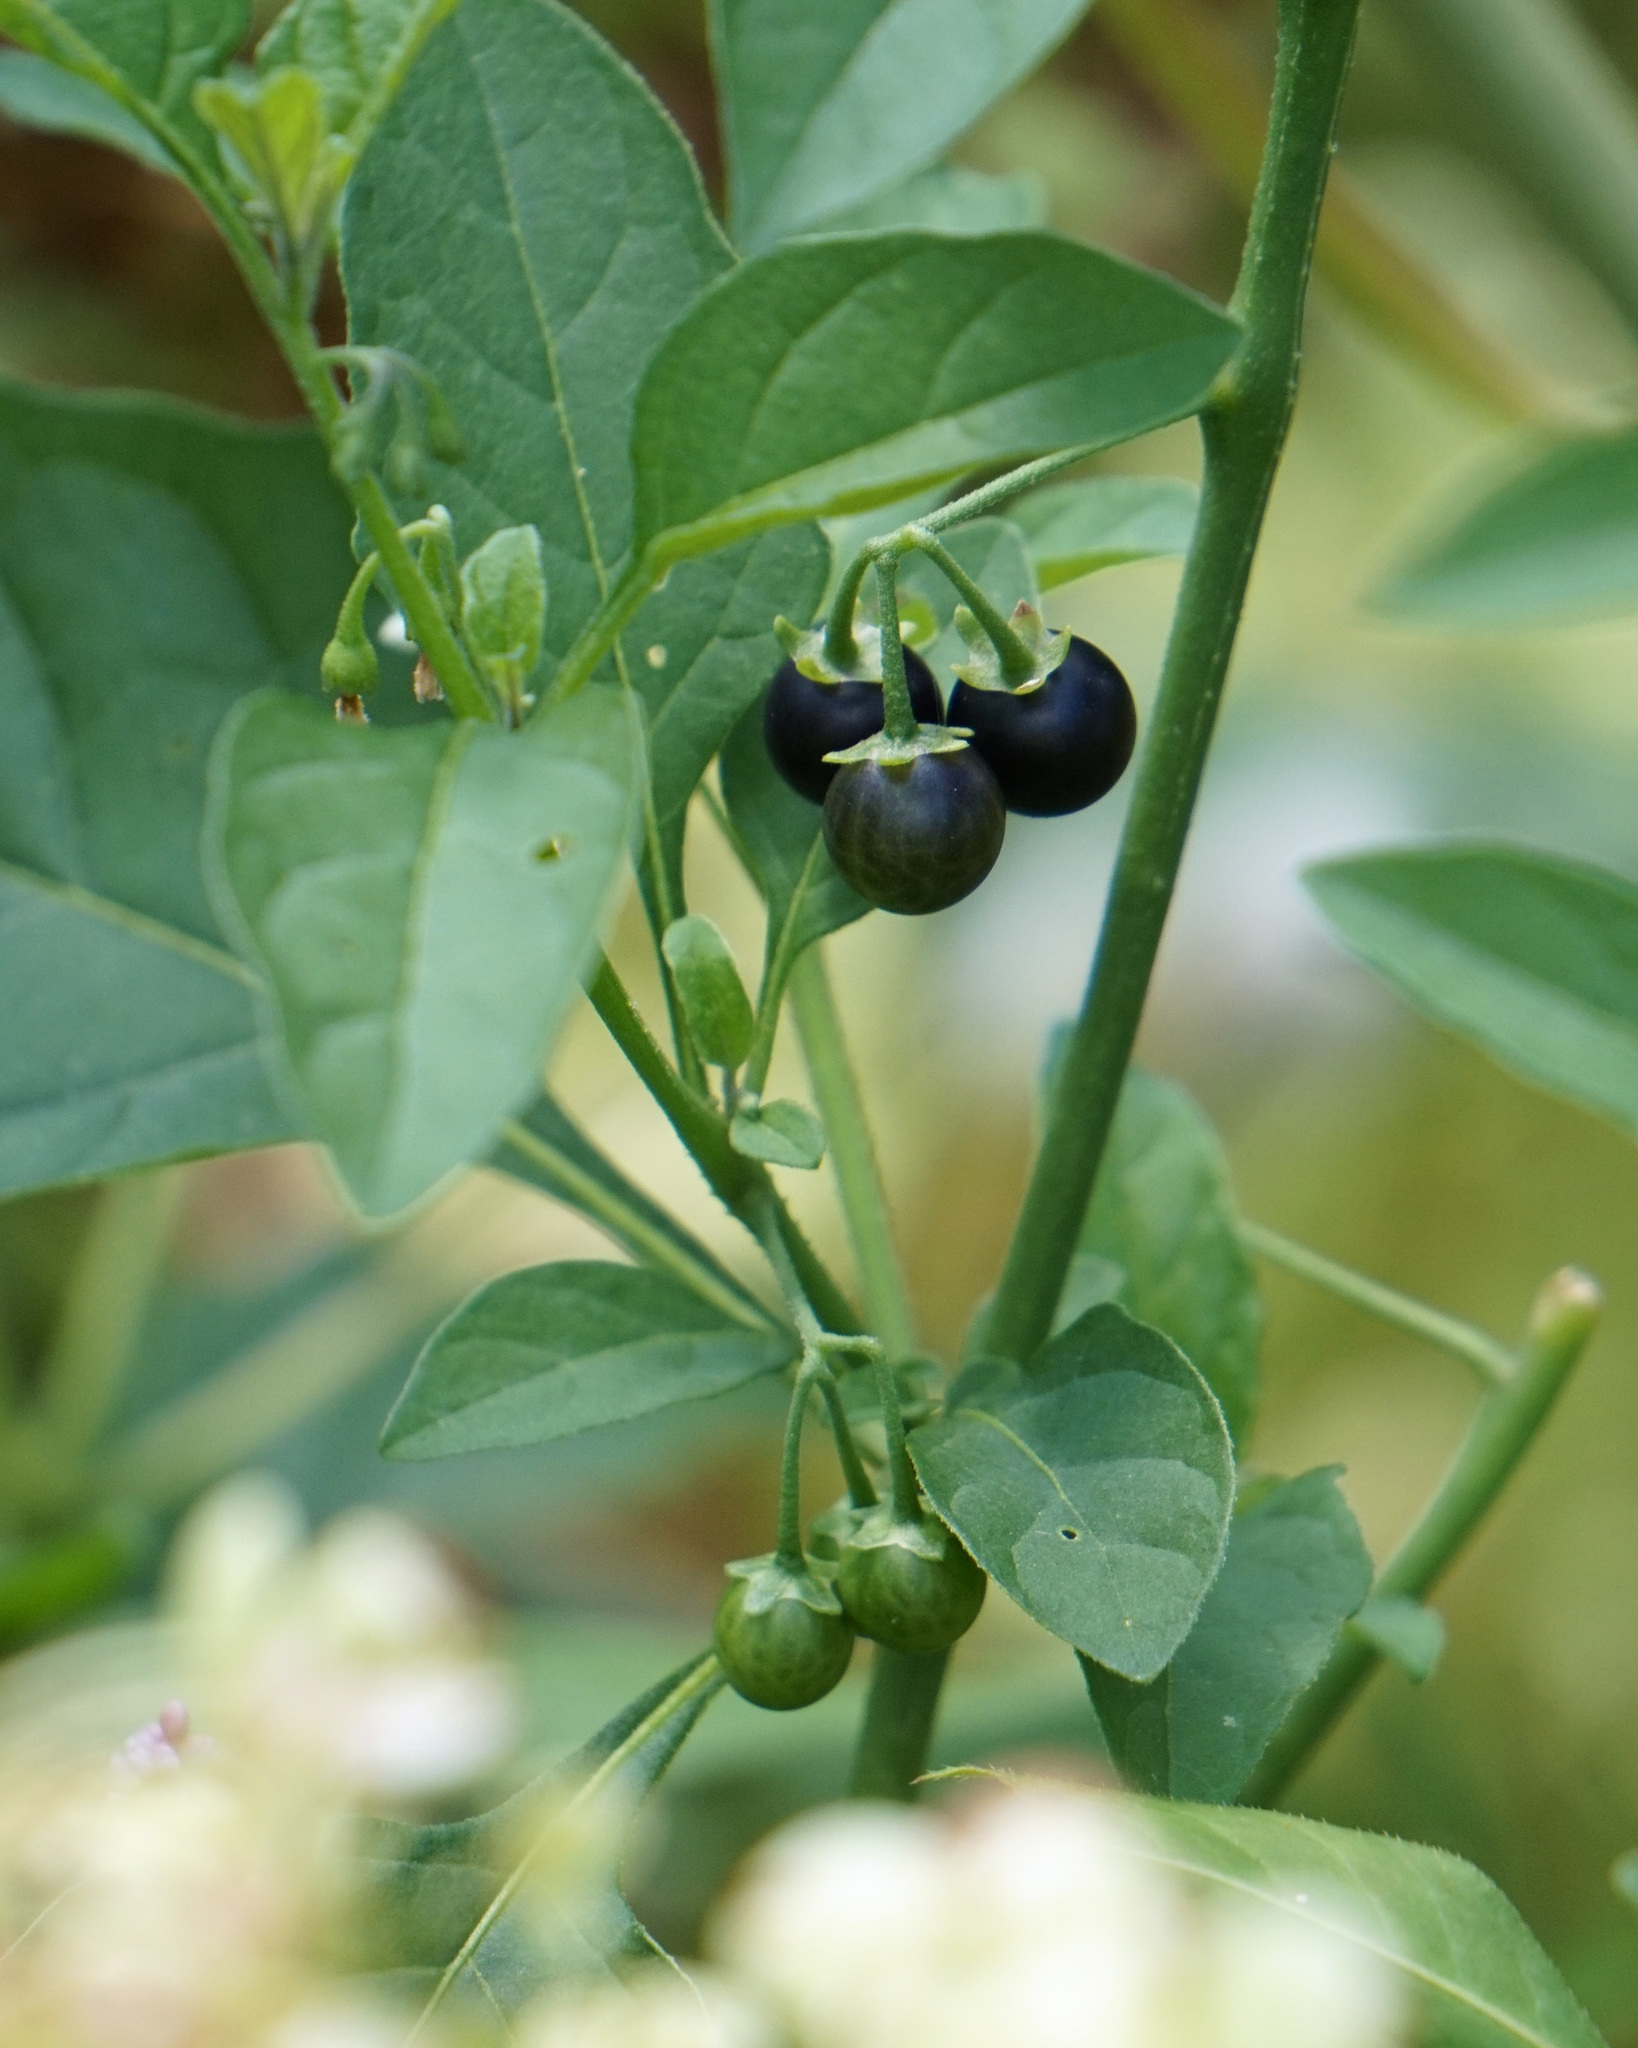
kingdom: Plantae
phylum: Tracheophyta
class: Magnoliopsida
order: Solanales
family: Solanaceae
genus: Solanum
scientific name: Solanum emulans
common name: Eastern black nightshade
